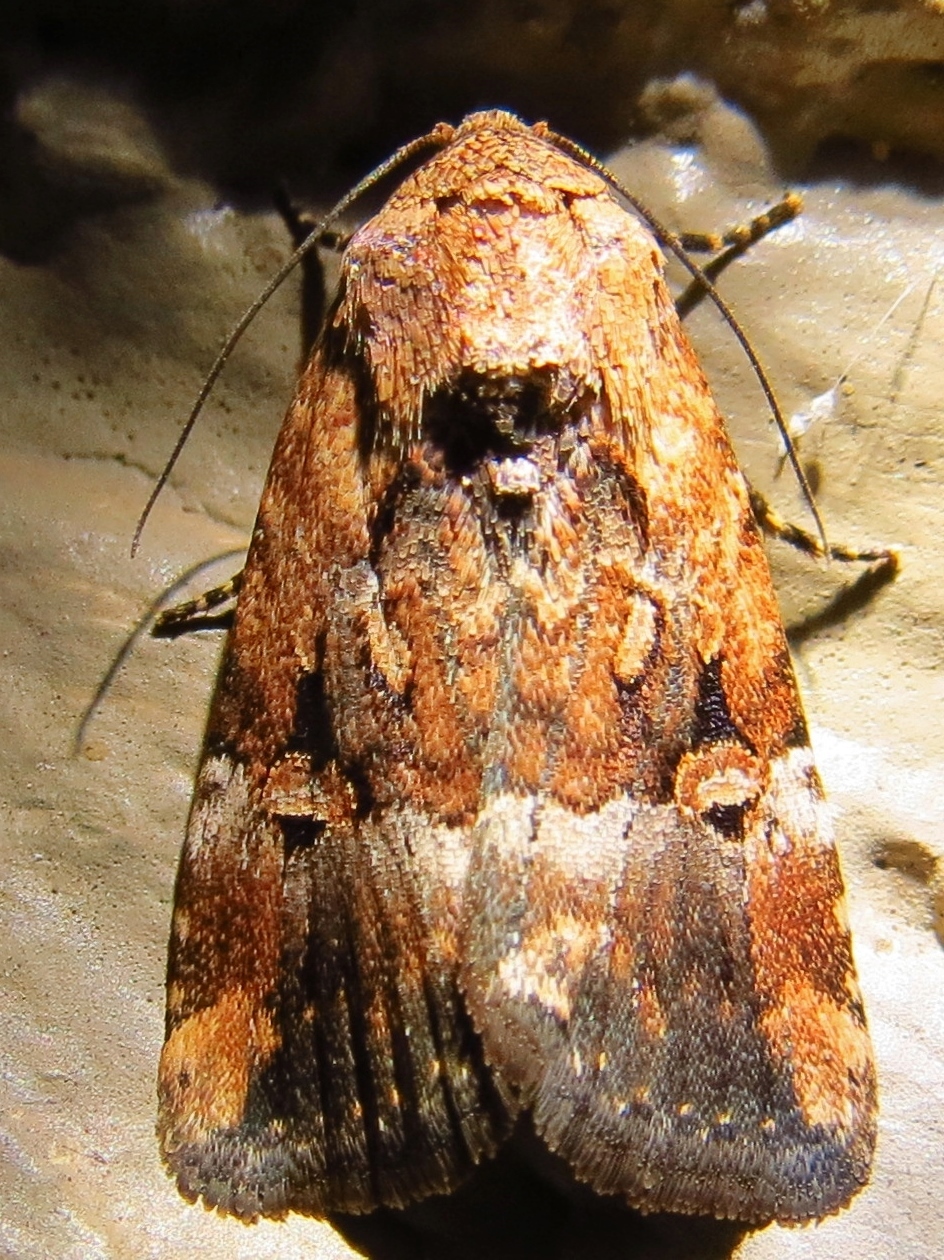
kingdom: Animalia
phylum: Arthropoda
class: Insecta
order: Lepidoptera
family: Noctuidae
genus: Elaphria
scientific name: Elaphria chalcedonia
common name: Chalcedony midget
